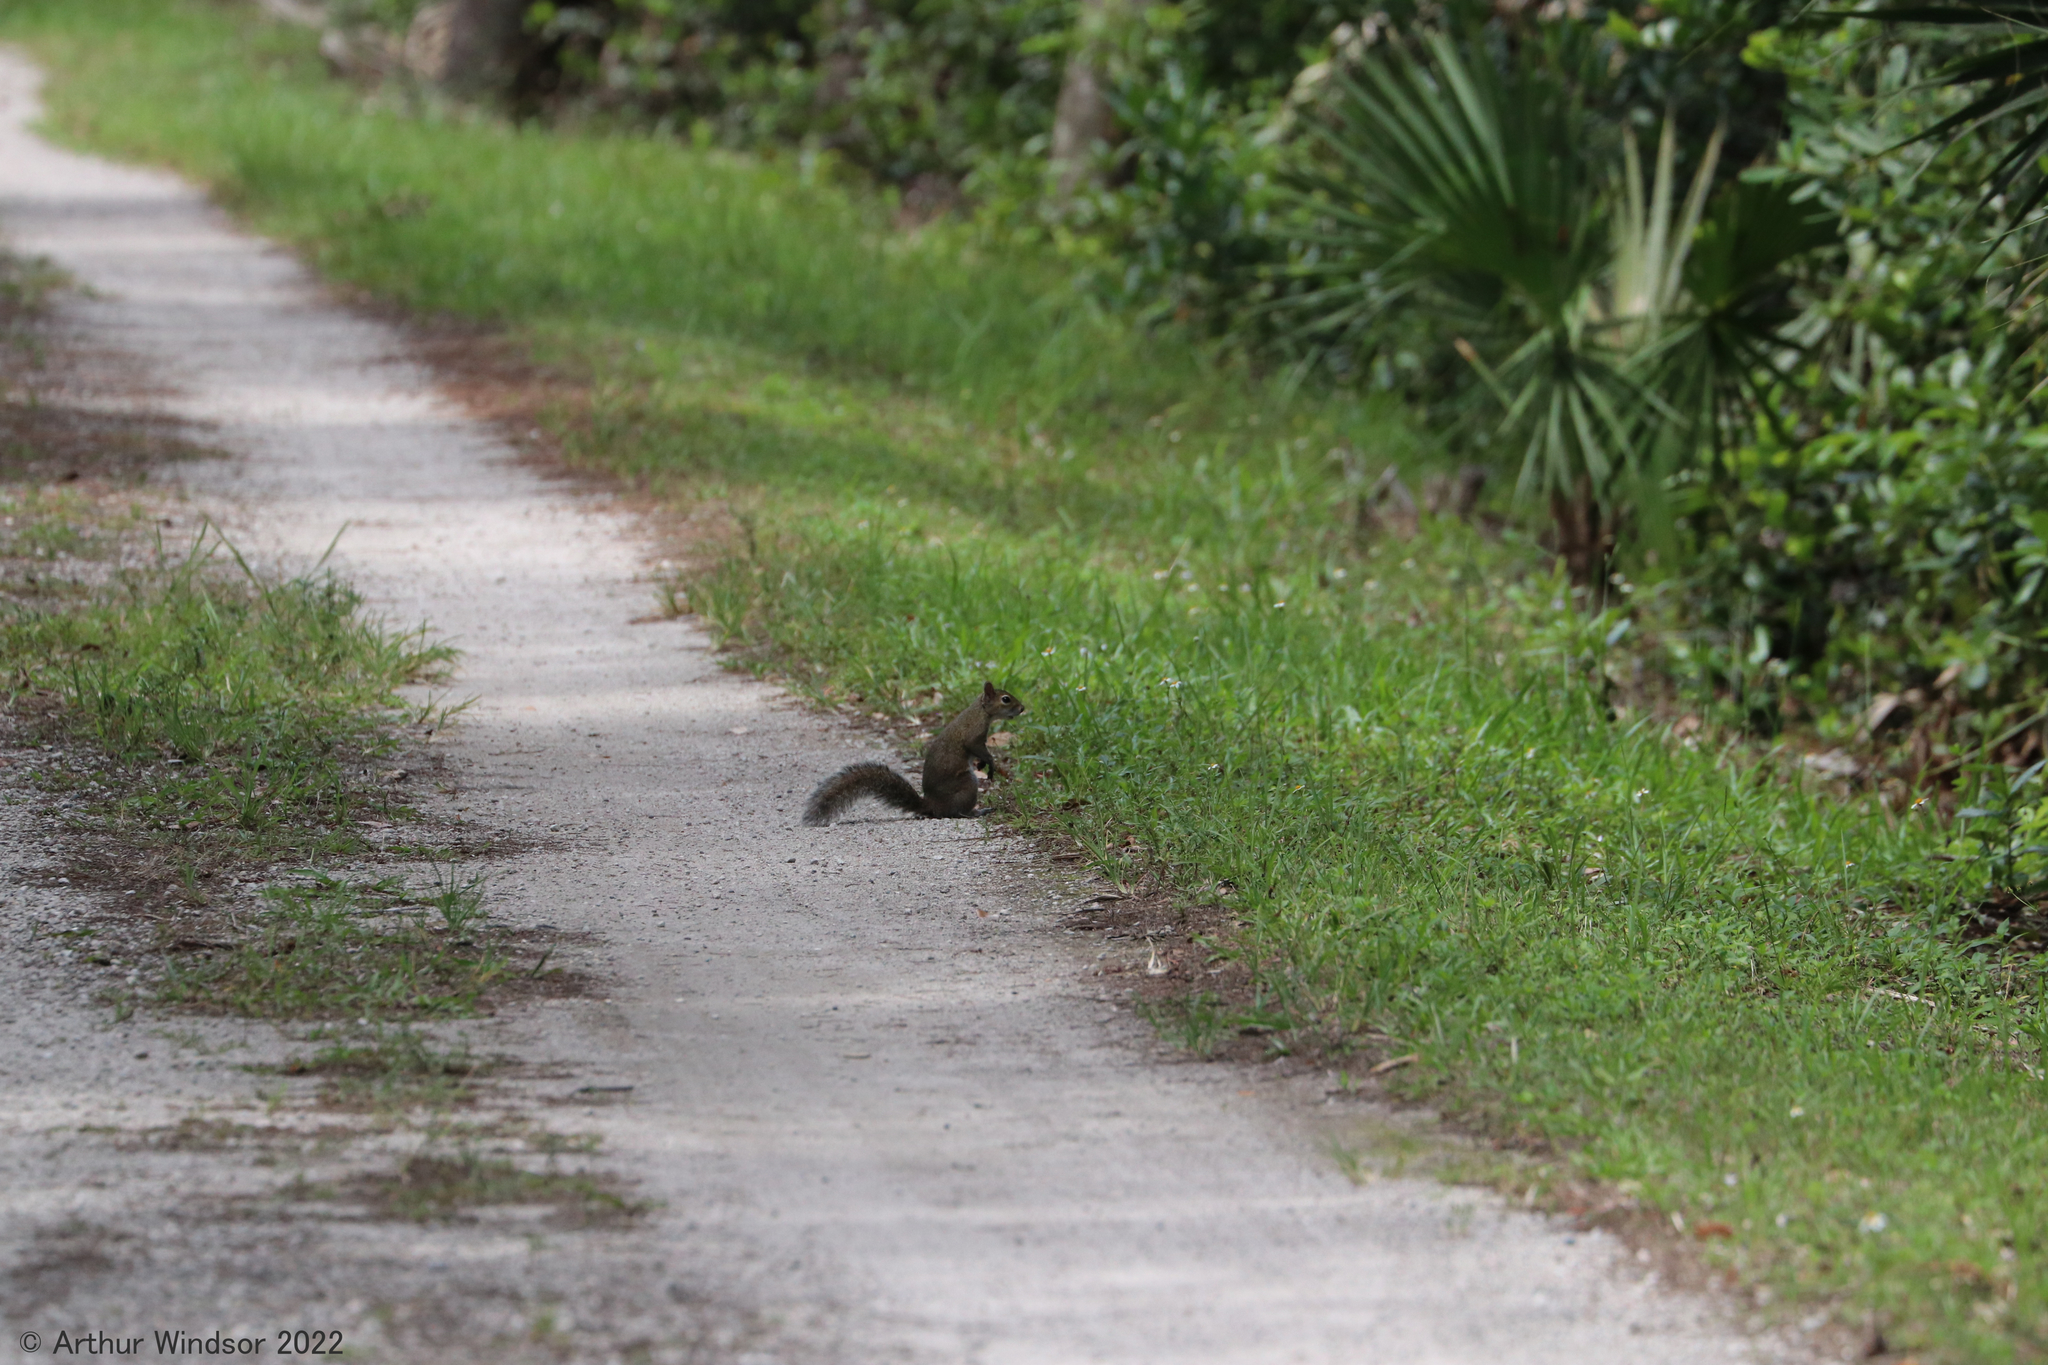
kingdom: Animalia
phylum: Chordata
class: Mammalia
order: Rodentia
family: Sciuridae
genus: Sciurus
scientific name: Sciurus carolinensis
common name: Eastern gray squirrel
